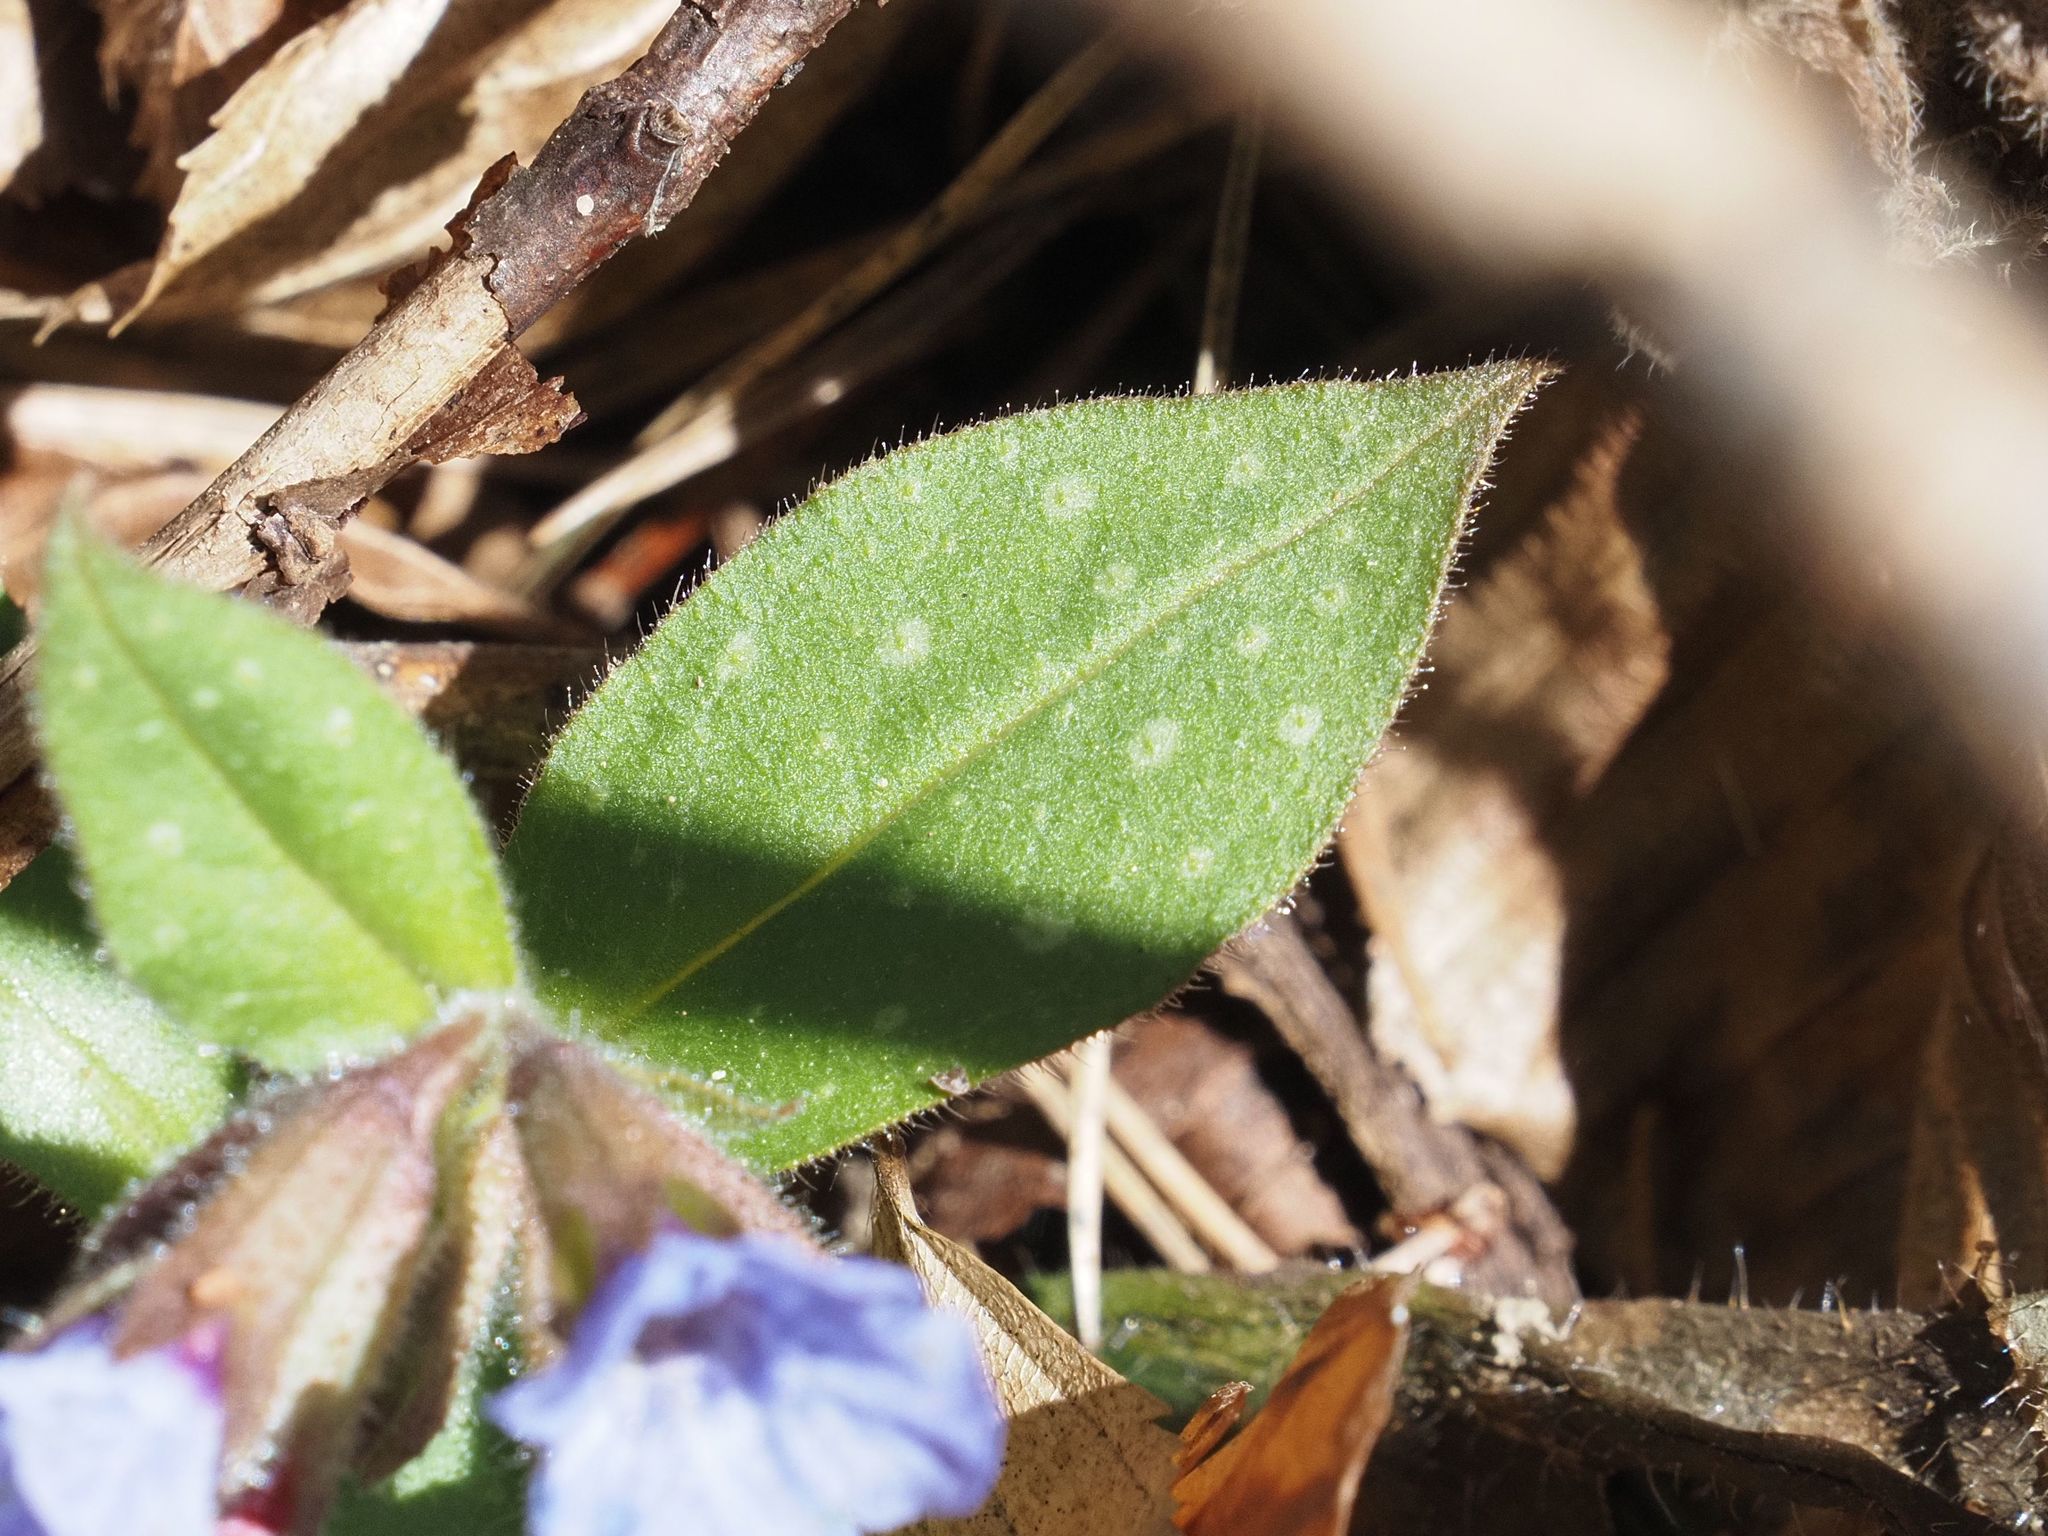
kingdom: Plantae
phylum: Tracheophyta
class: Magnoliopsida
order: Boraginales
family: Boraginaceae
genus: Pulmonaria
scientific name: Pulmonaria officinalis
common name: Lungwort
